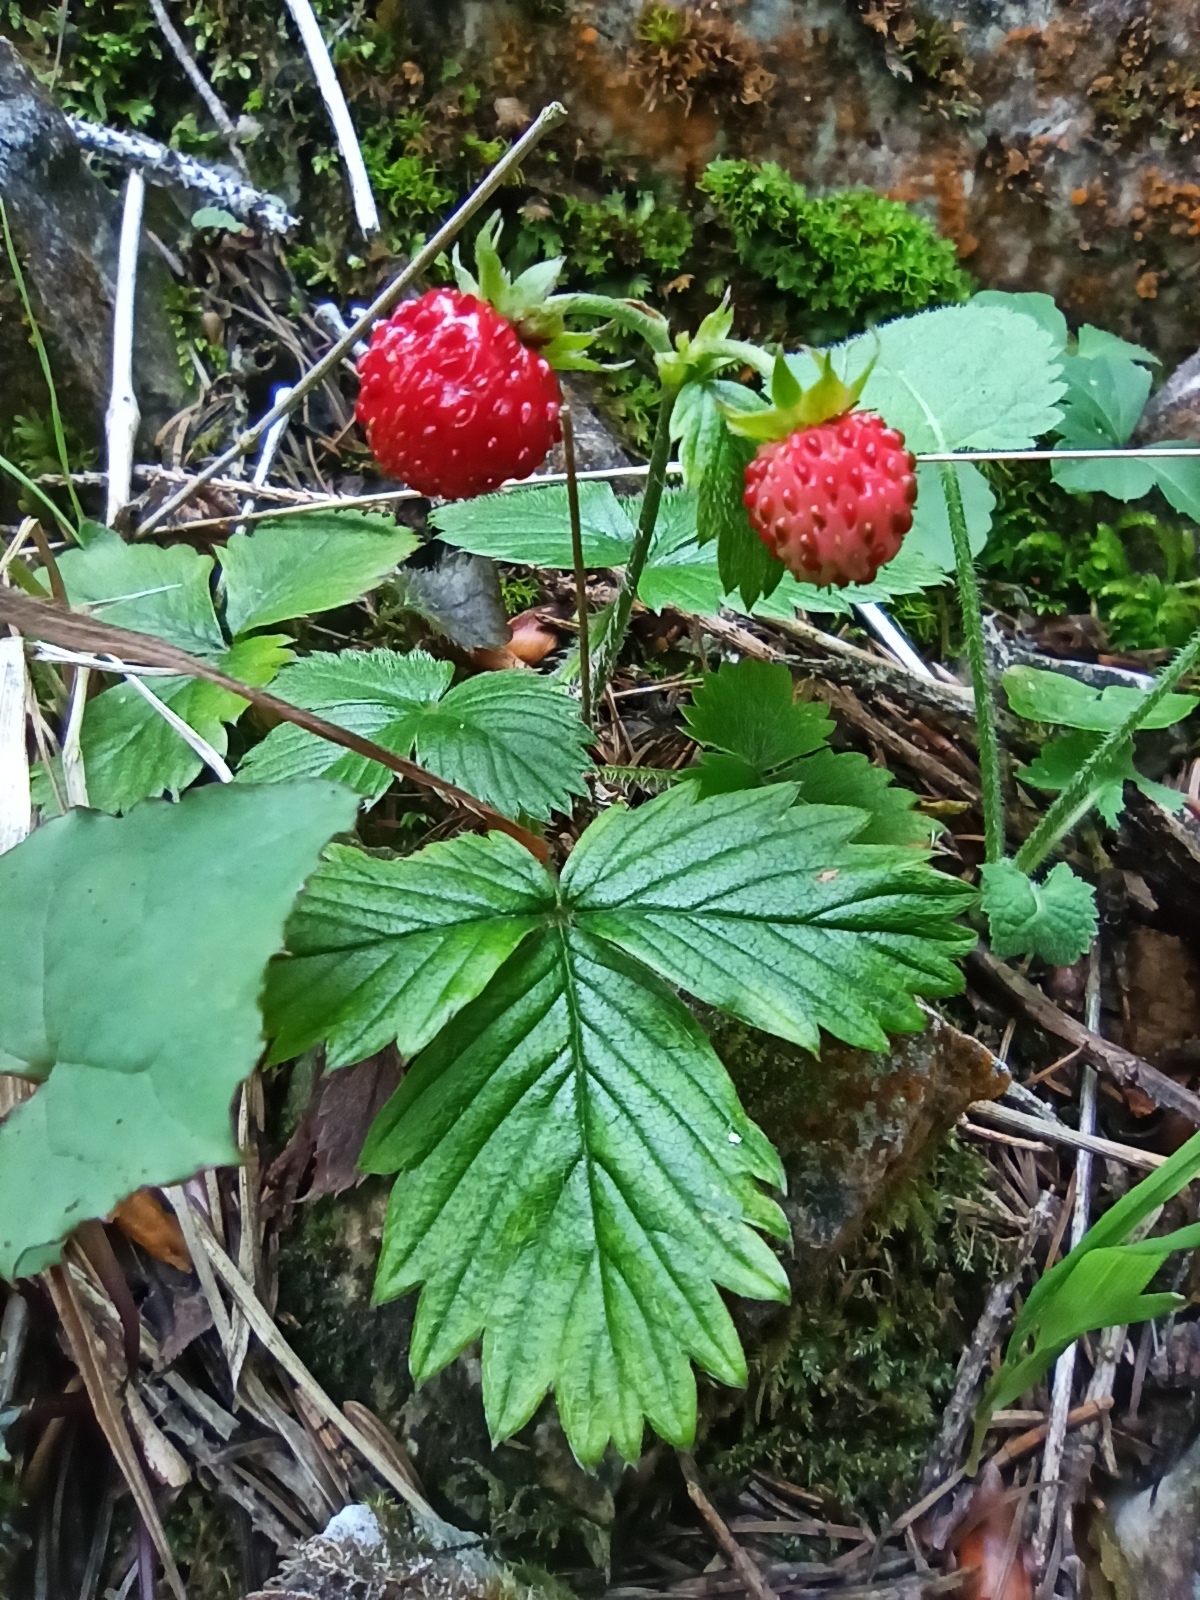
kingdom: Plantae
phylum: Tracheophyta
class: Magnoliopsida
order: Rosales
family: Rosaceae
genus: Fragaria
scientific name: Fragaria vesca
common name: Wild strawberry
